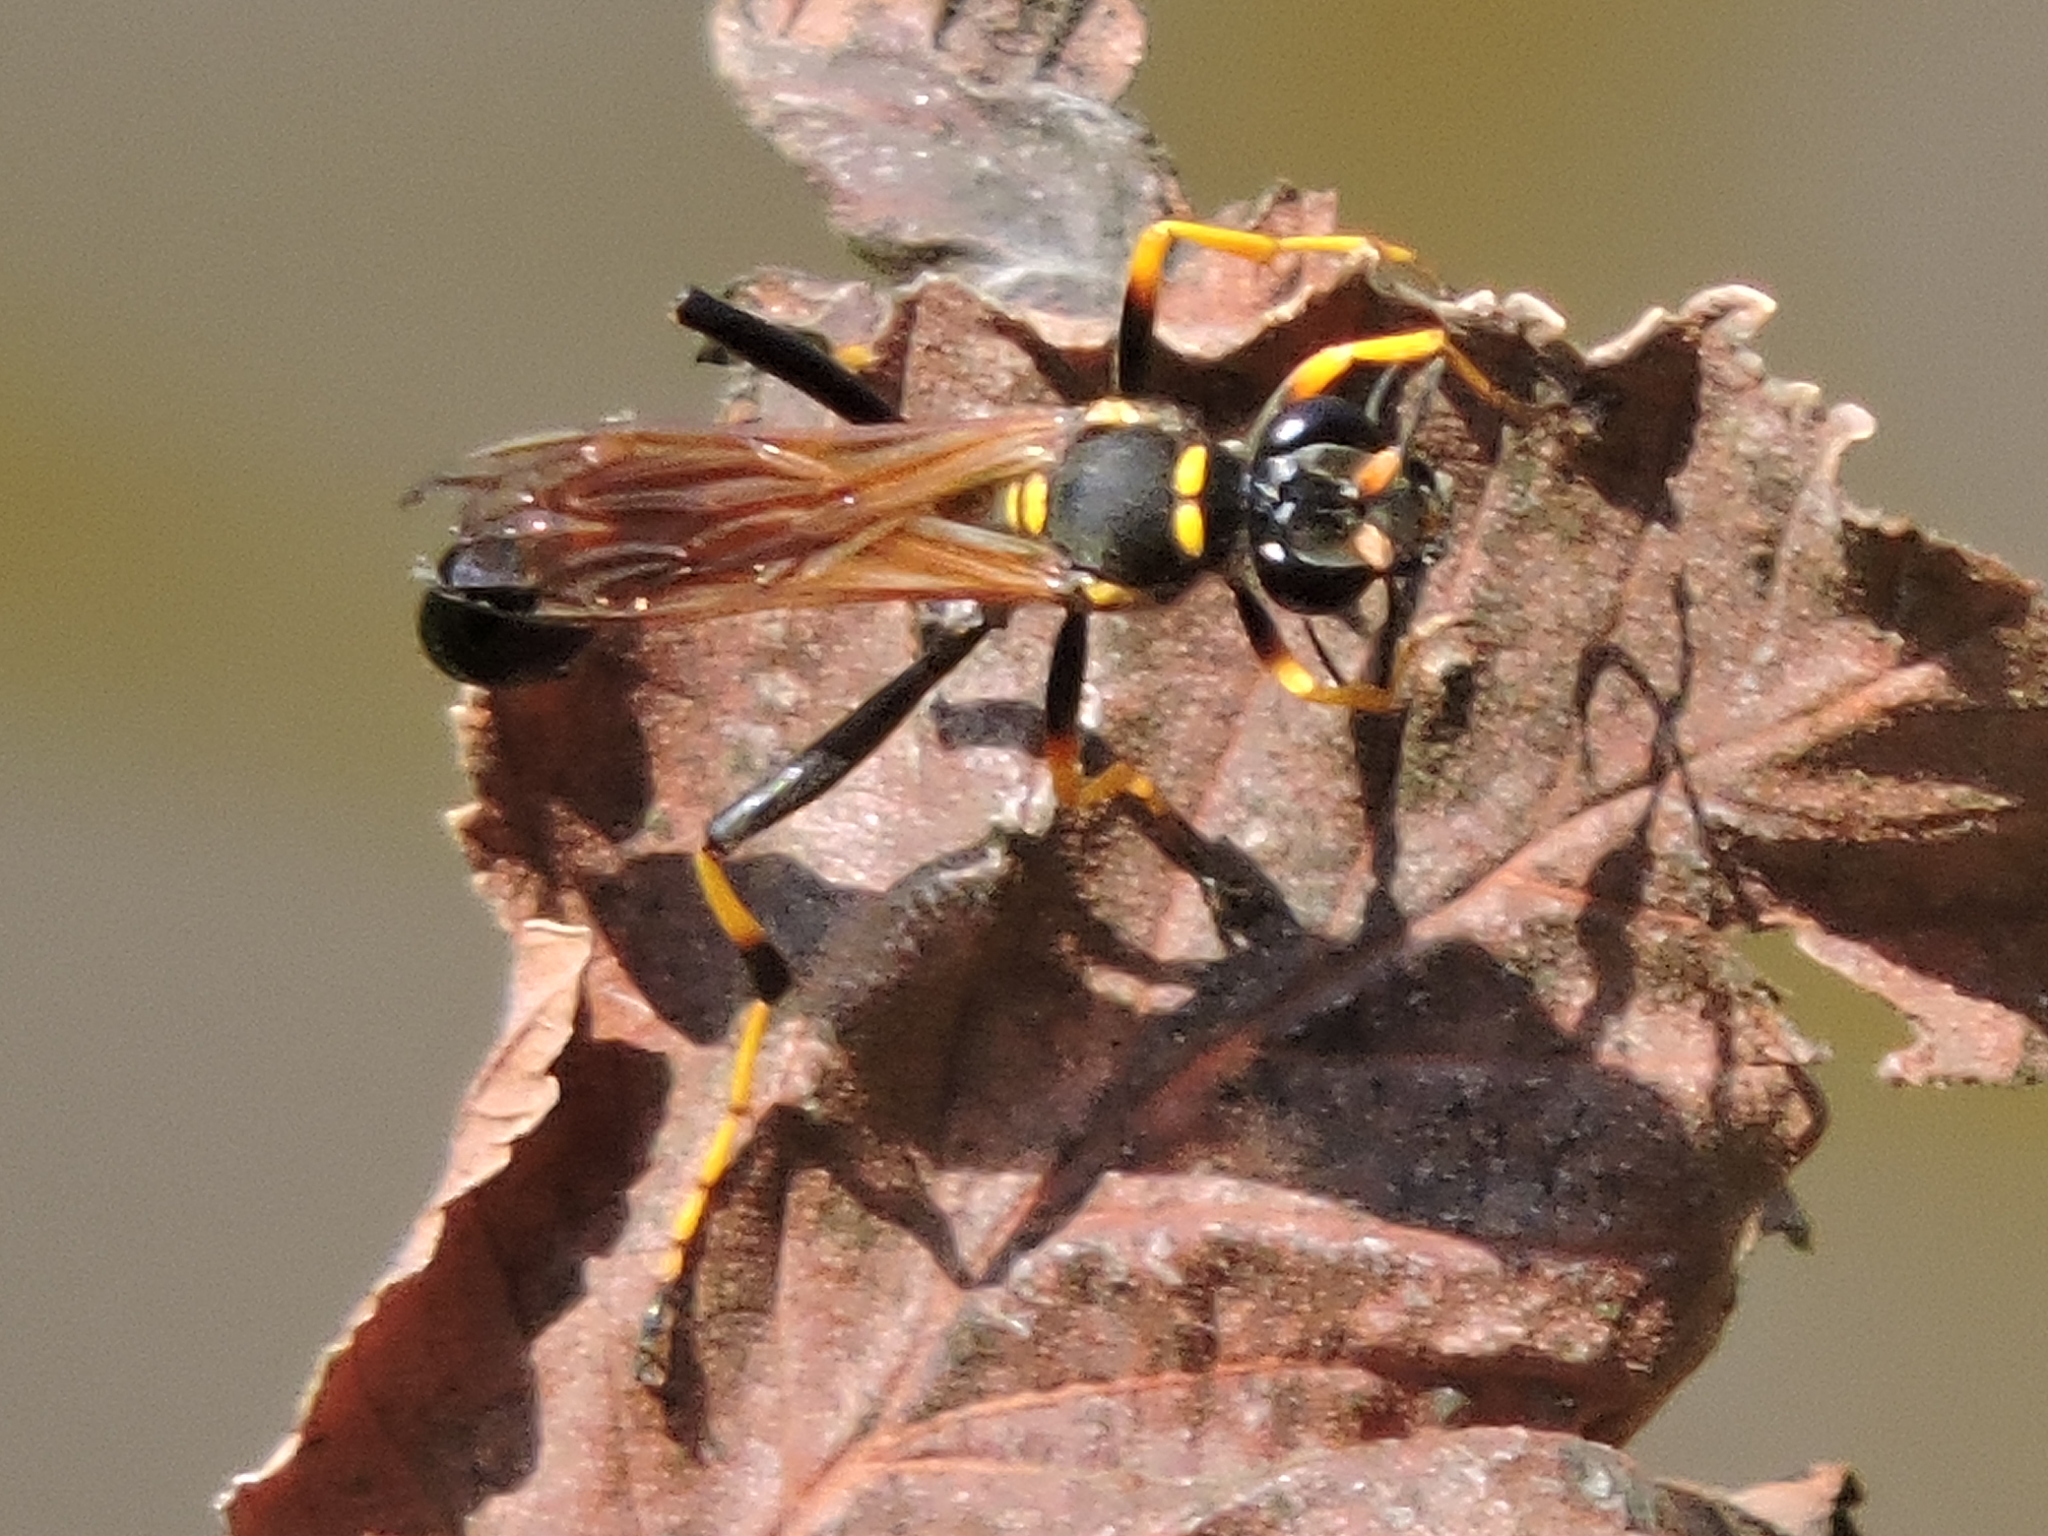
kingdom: Animalia
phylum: Arthropoda
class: Insecta
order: Hymenoptera
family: Sphecidae
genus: Sceliphron
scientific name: Sceliphron caementarium
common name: Mud dauber
